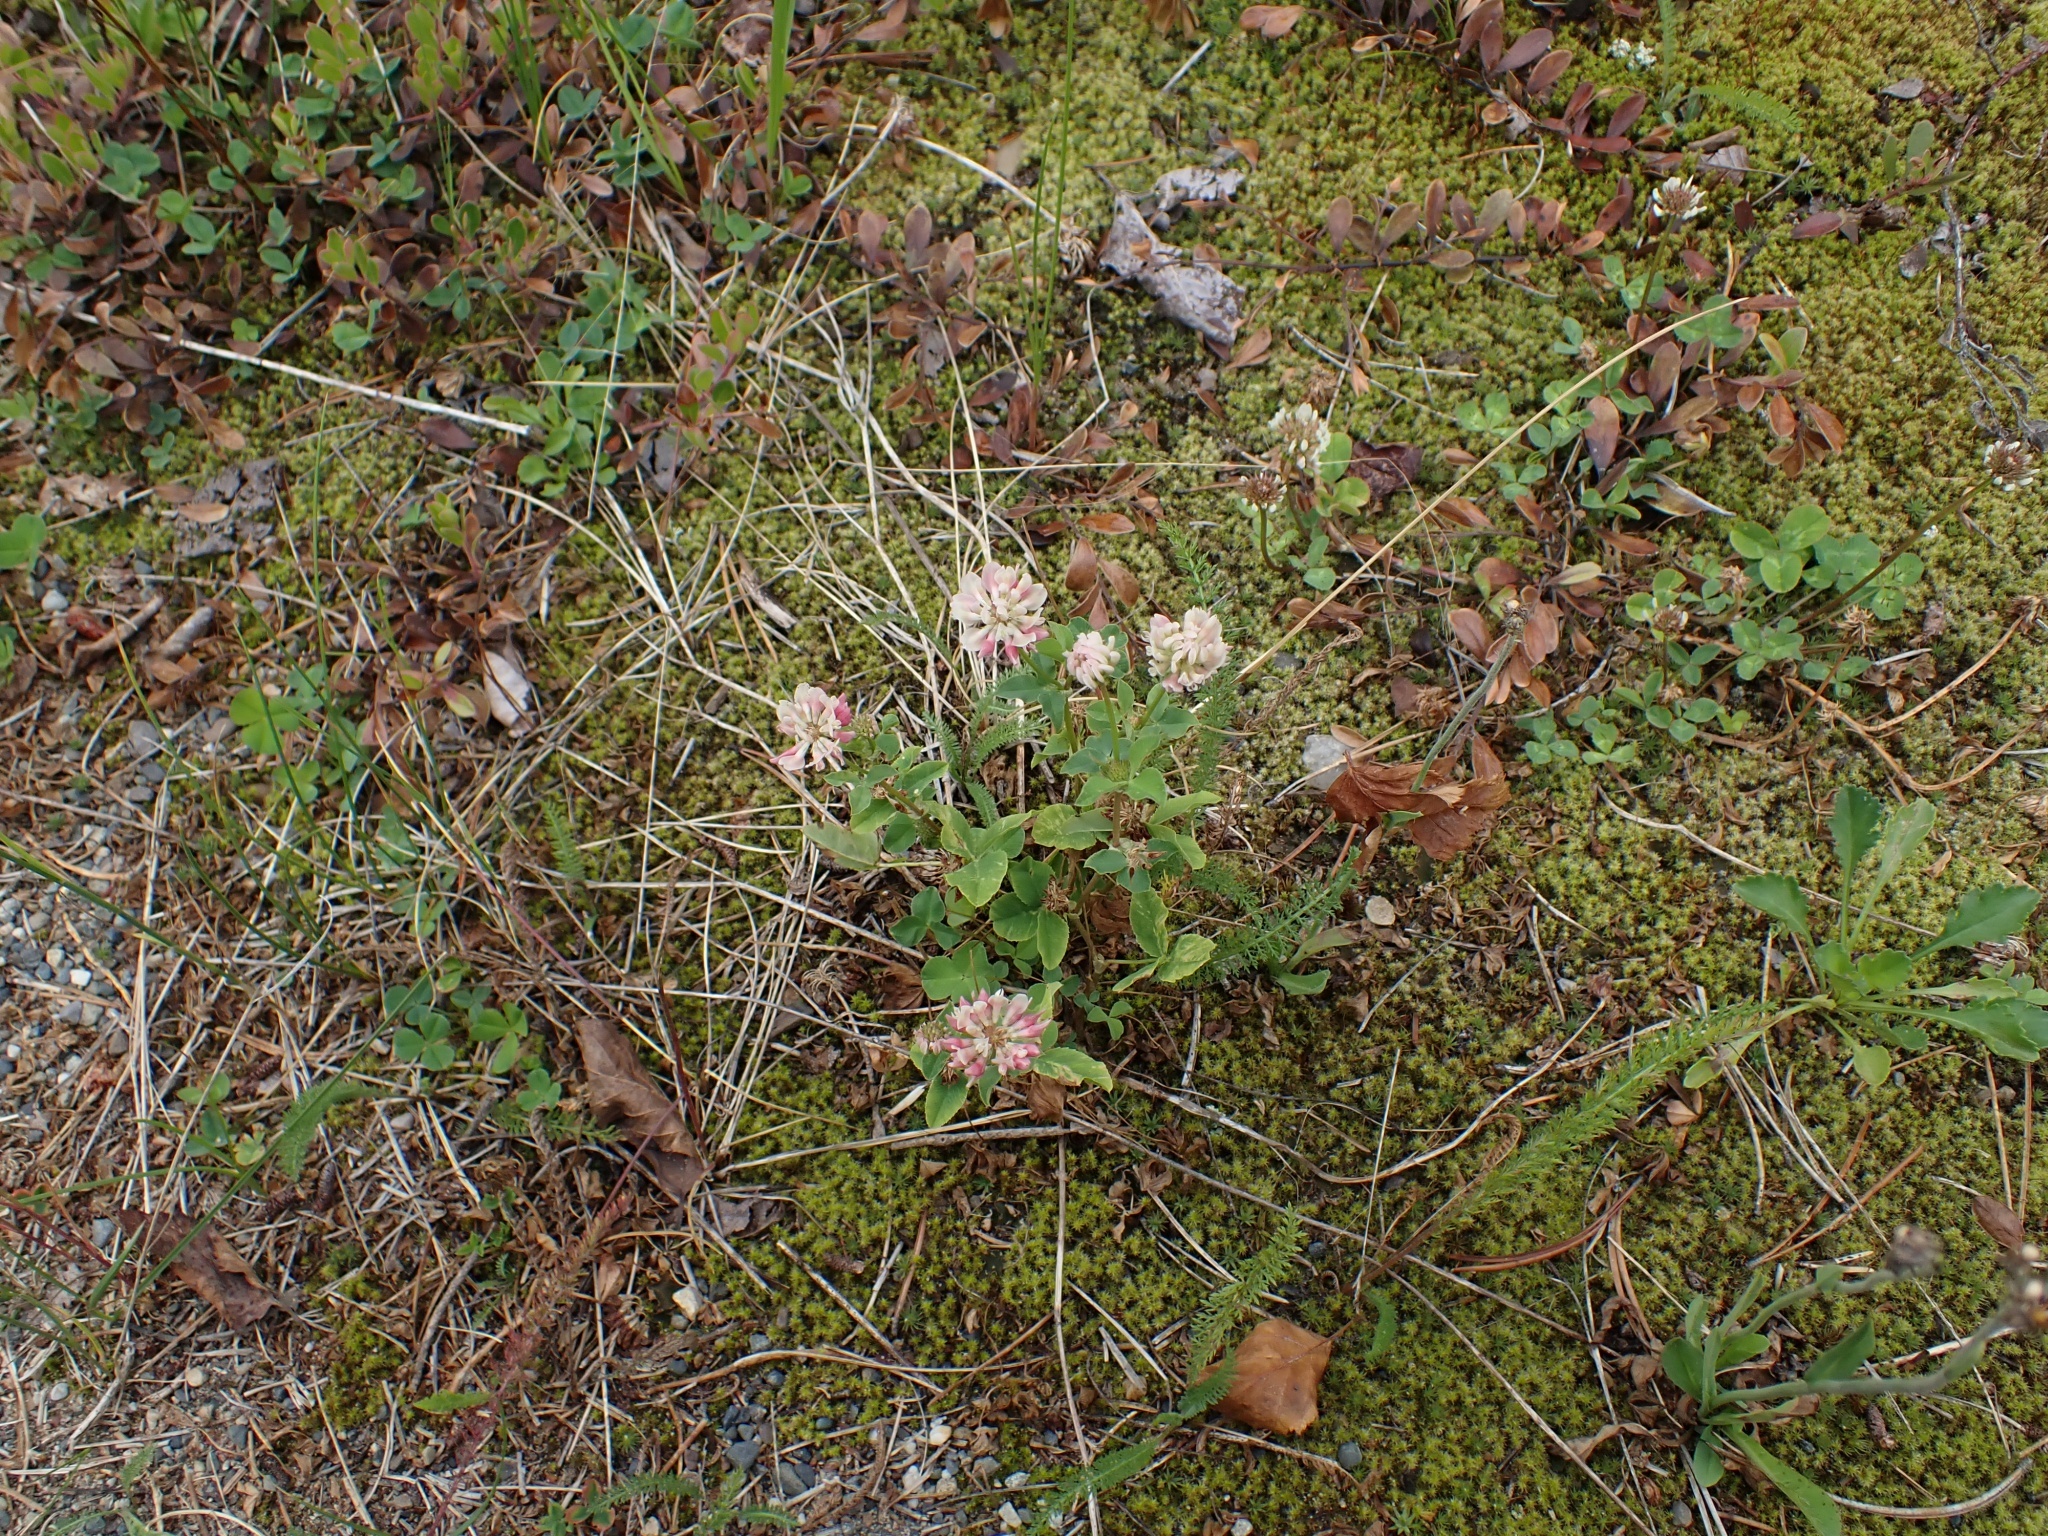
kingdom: Plantae
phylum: Tracheophyta
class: Magnoliopsida
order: Fabales
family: Fabaceae
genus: Trifolium
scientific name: Trifolium hybridum
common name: Alsike clover
